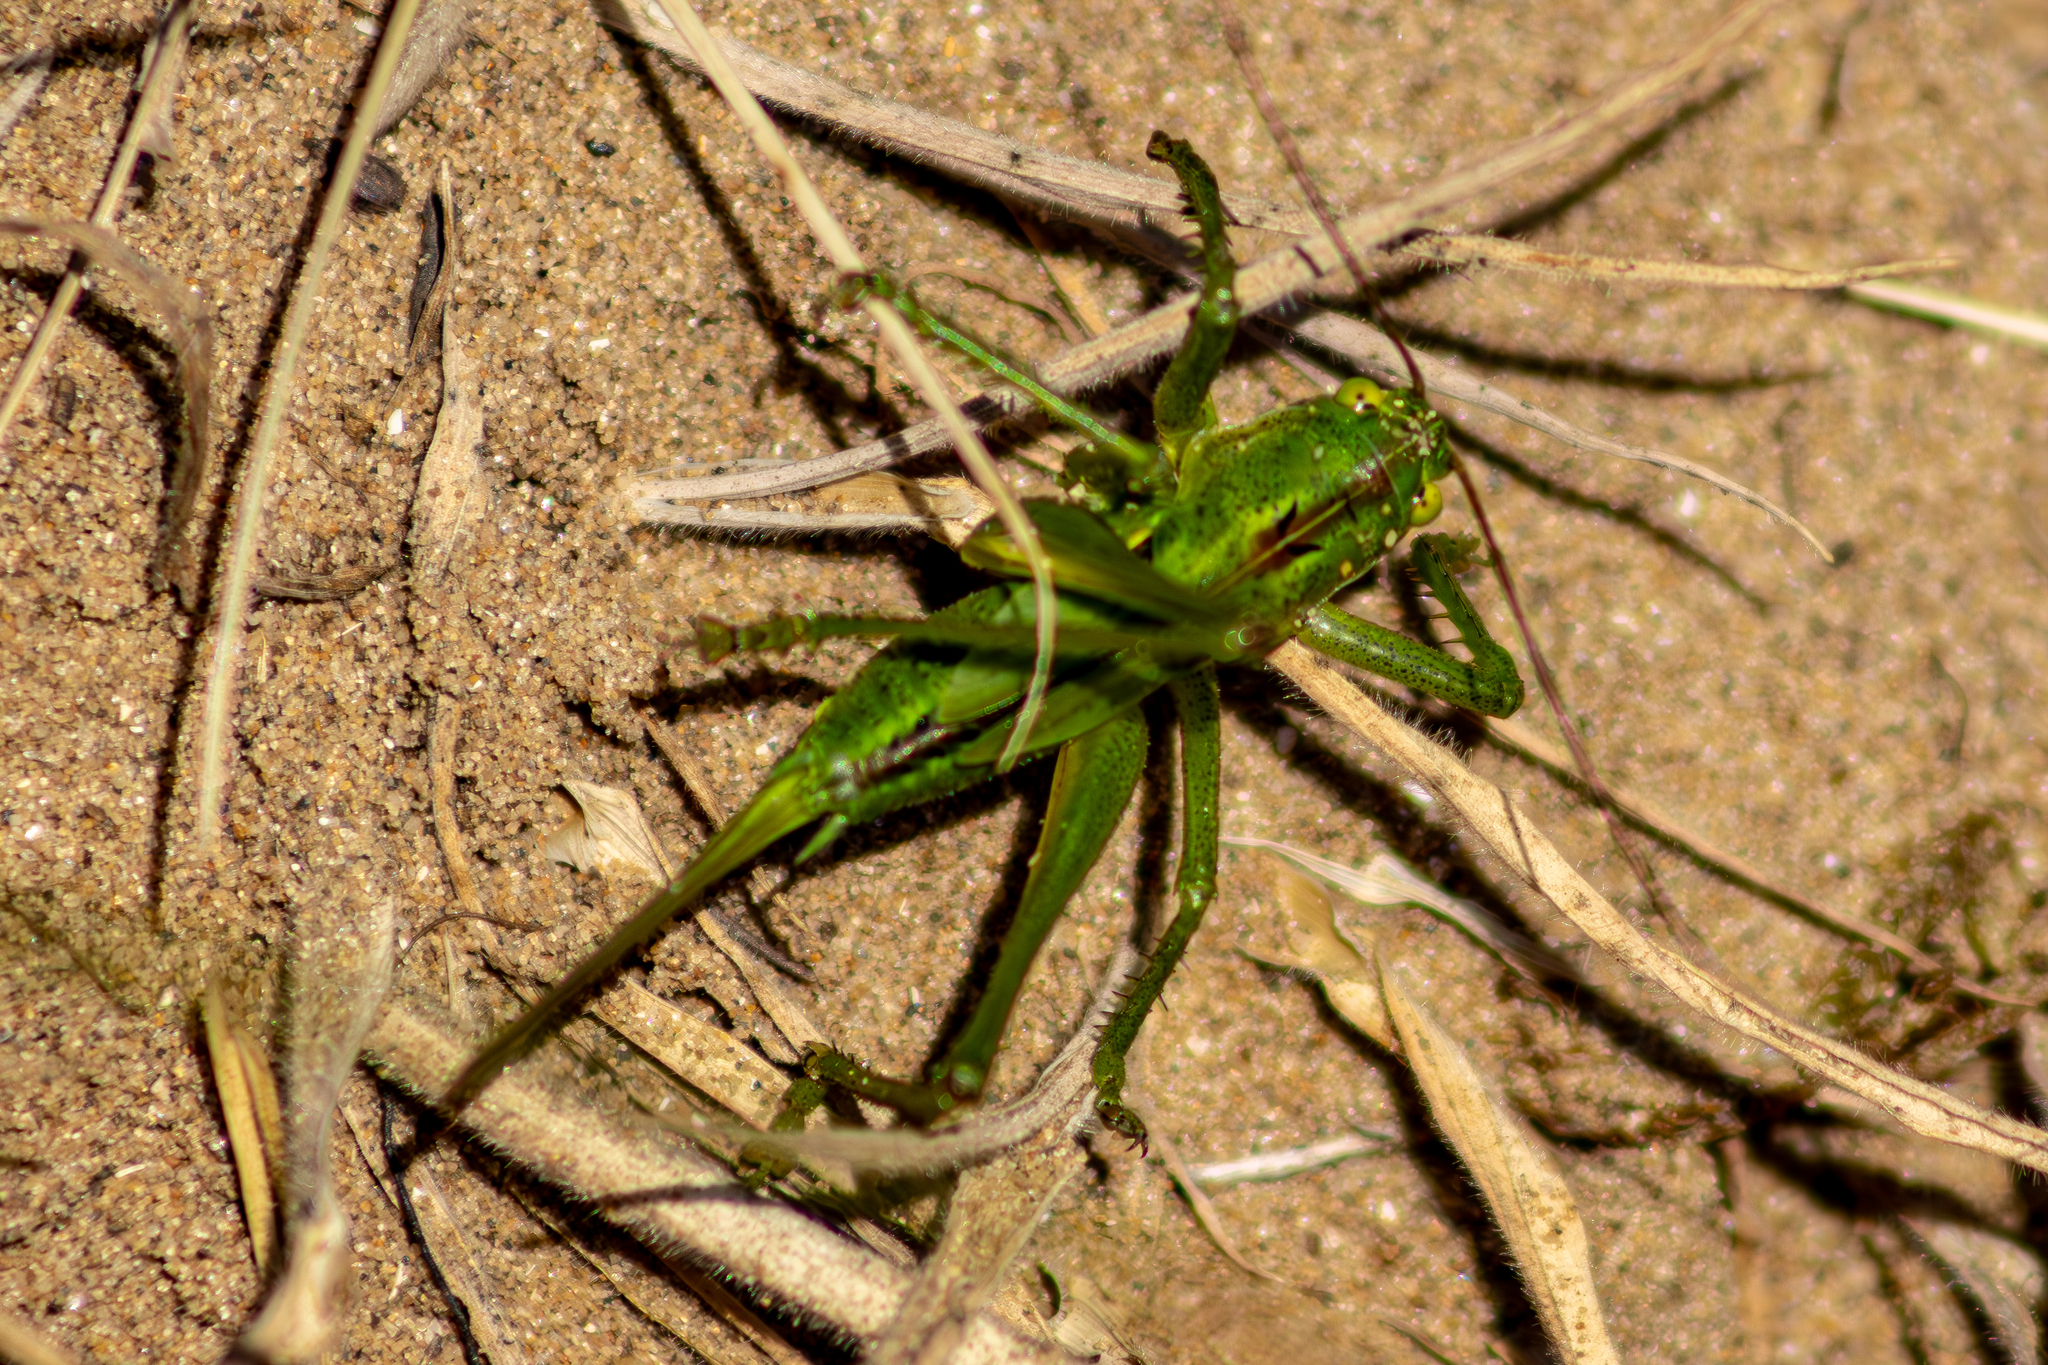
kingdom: Animalia
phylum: Arthropoda
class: Insecta
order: Orthoptera
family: Tettigoniidae
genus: Tettigonia
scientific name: Tettigonia viridissima
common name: Great green bush-cricket
